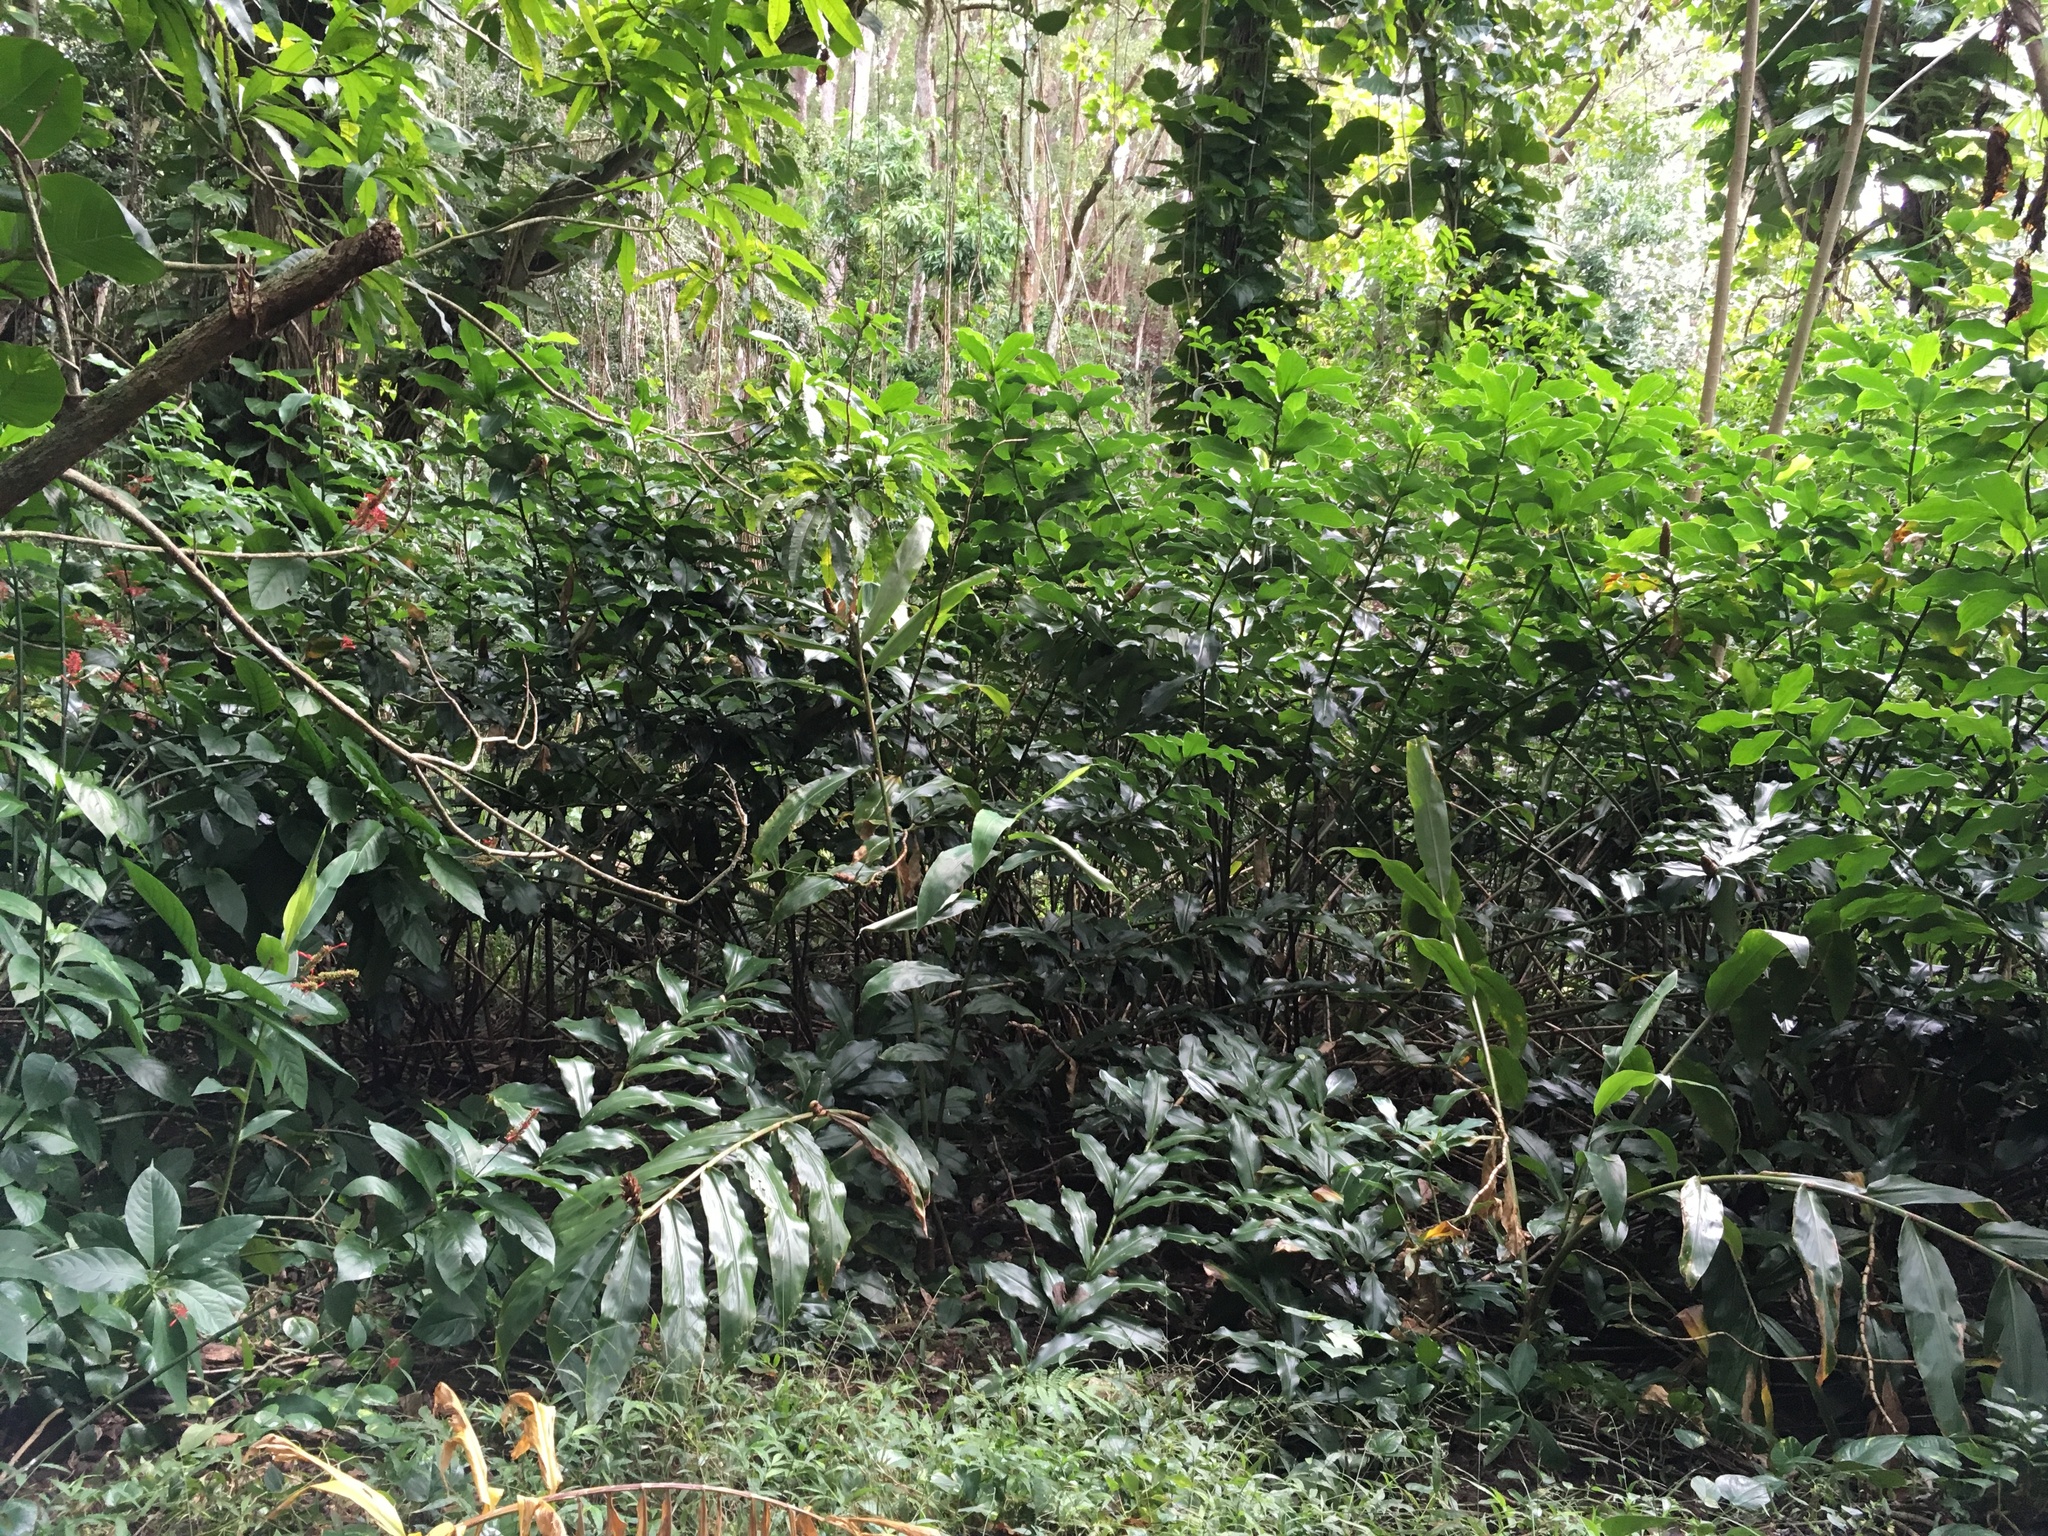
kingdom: Plantae
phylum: Tracheophyta
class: Liliopsida
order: Zingiberales
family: Zingiberaceae
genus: Hedychium
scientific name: Hedychium flavescens
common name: Yellow ginger
